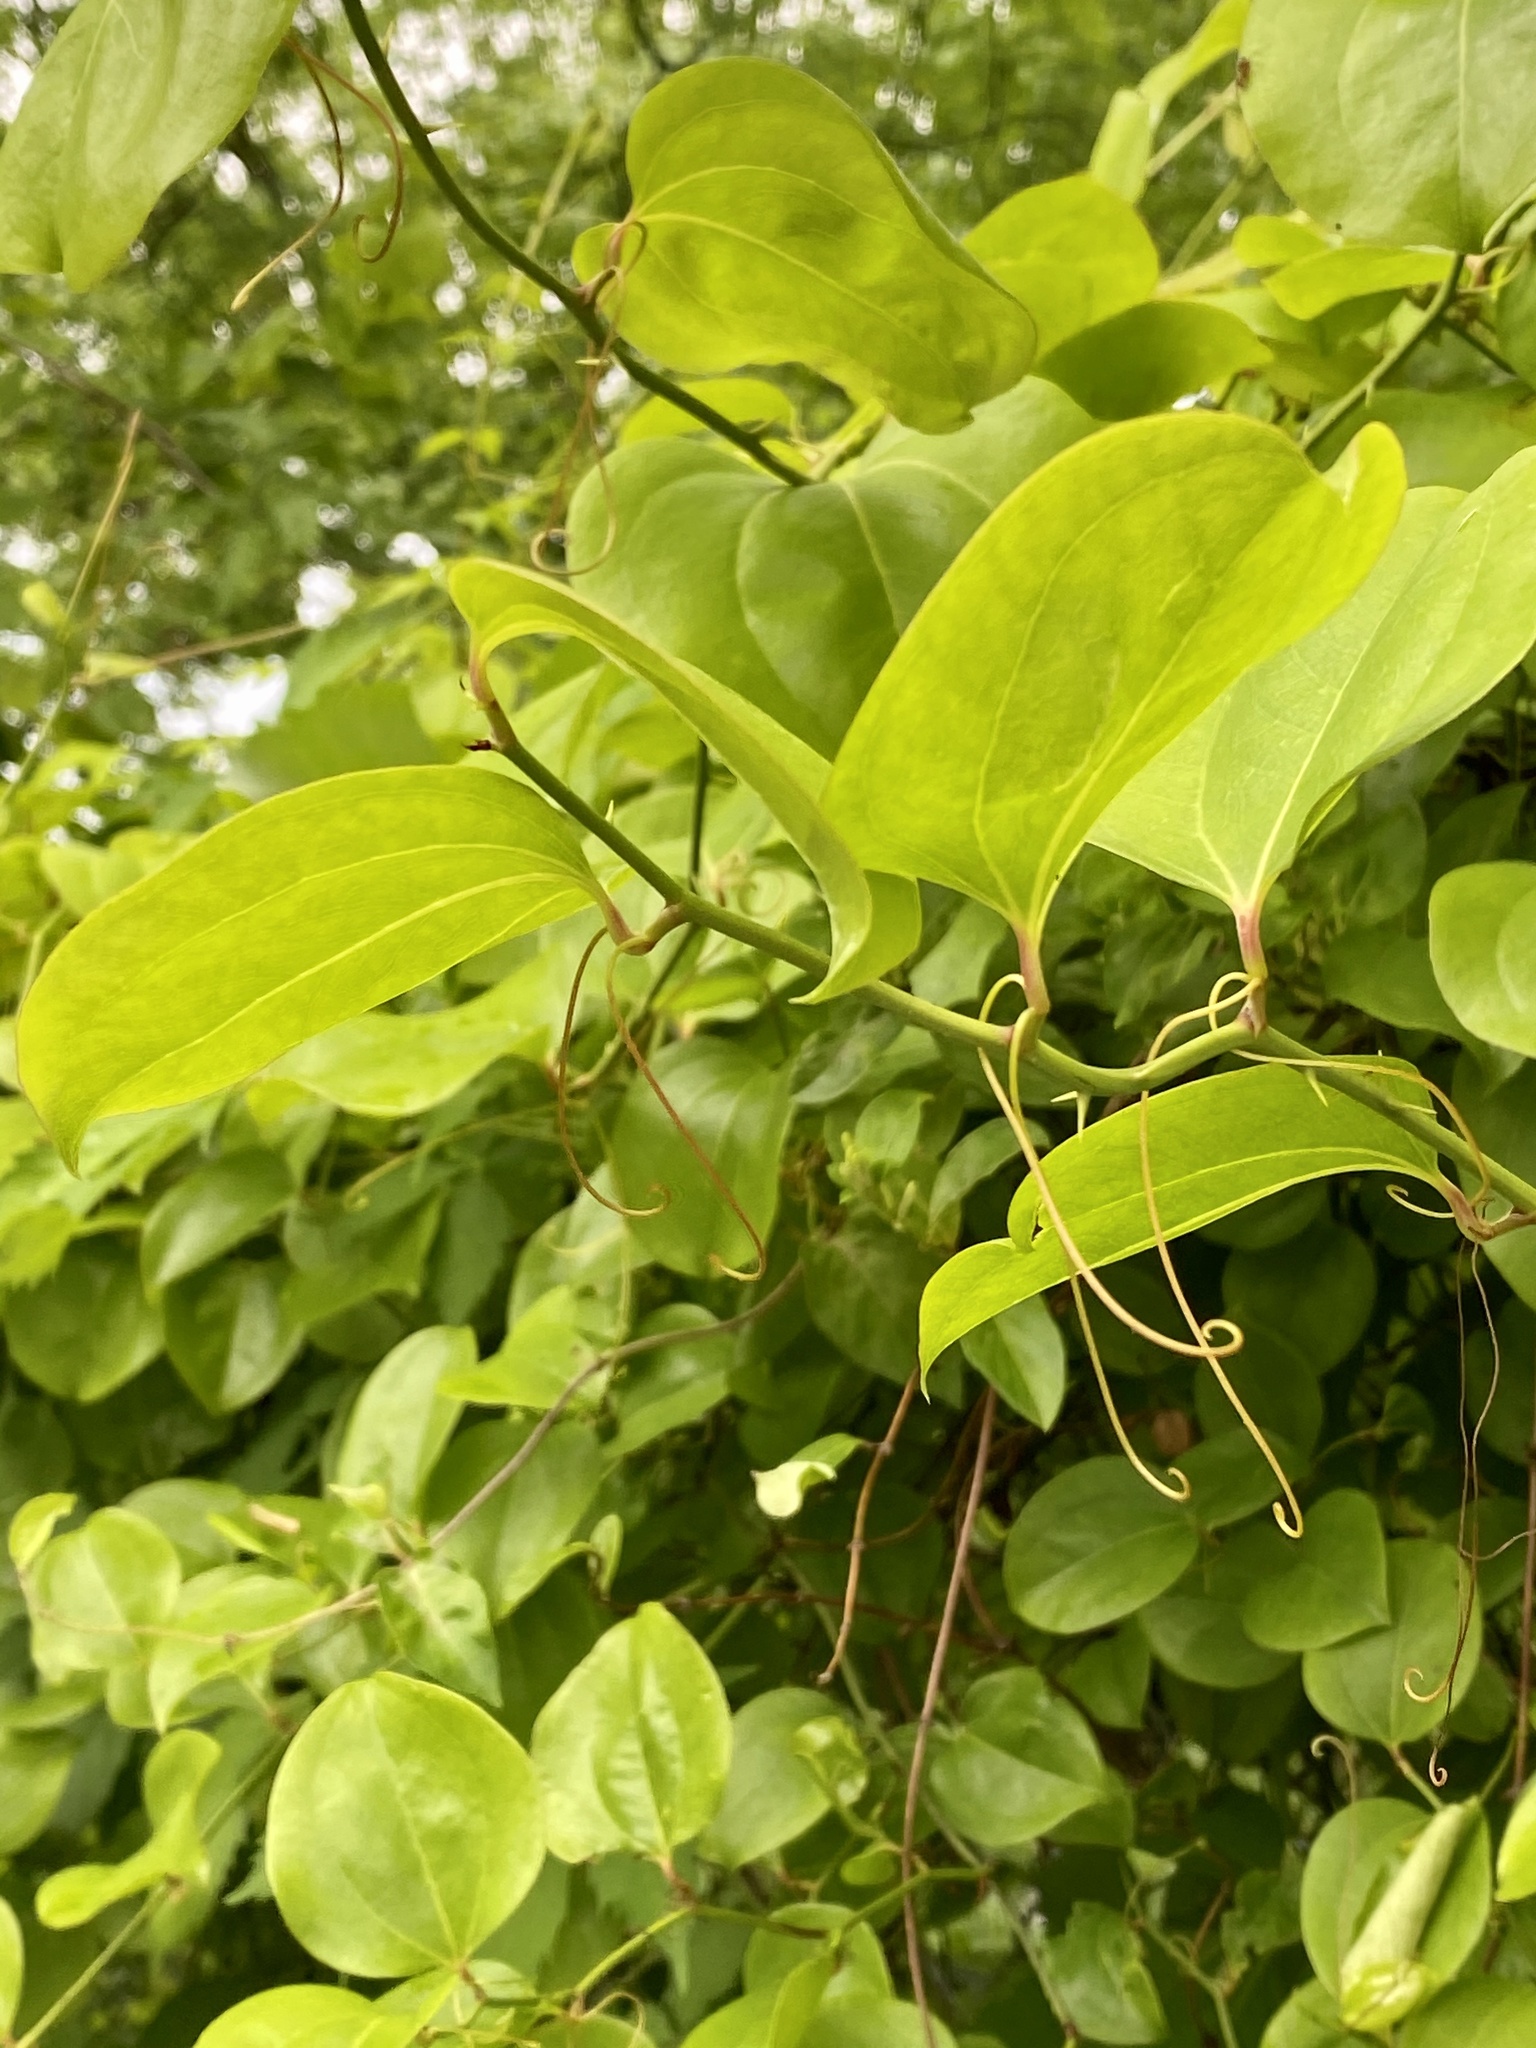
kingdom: Plantae
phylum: Tracheophyta
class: Liliopsida
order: Liliales
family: Smilacaceae
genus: Smilax
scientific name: Smilax rotundifolia
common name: Bullbriar
